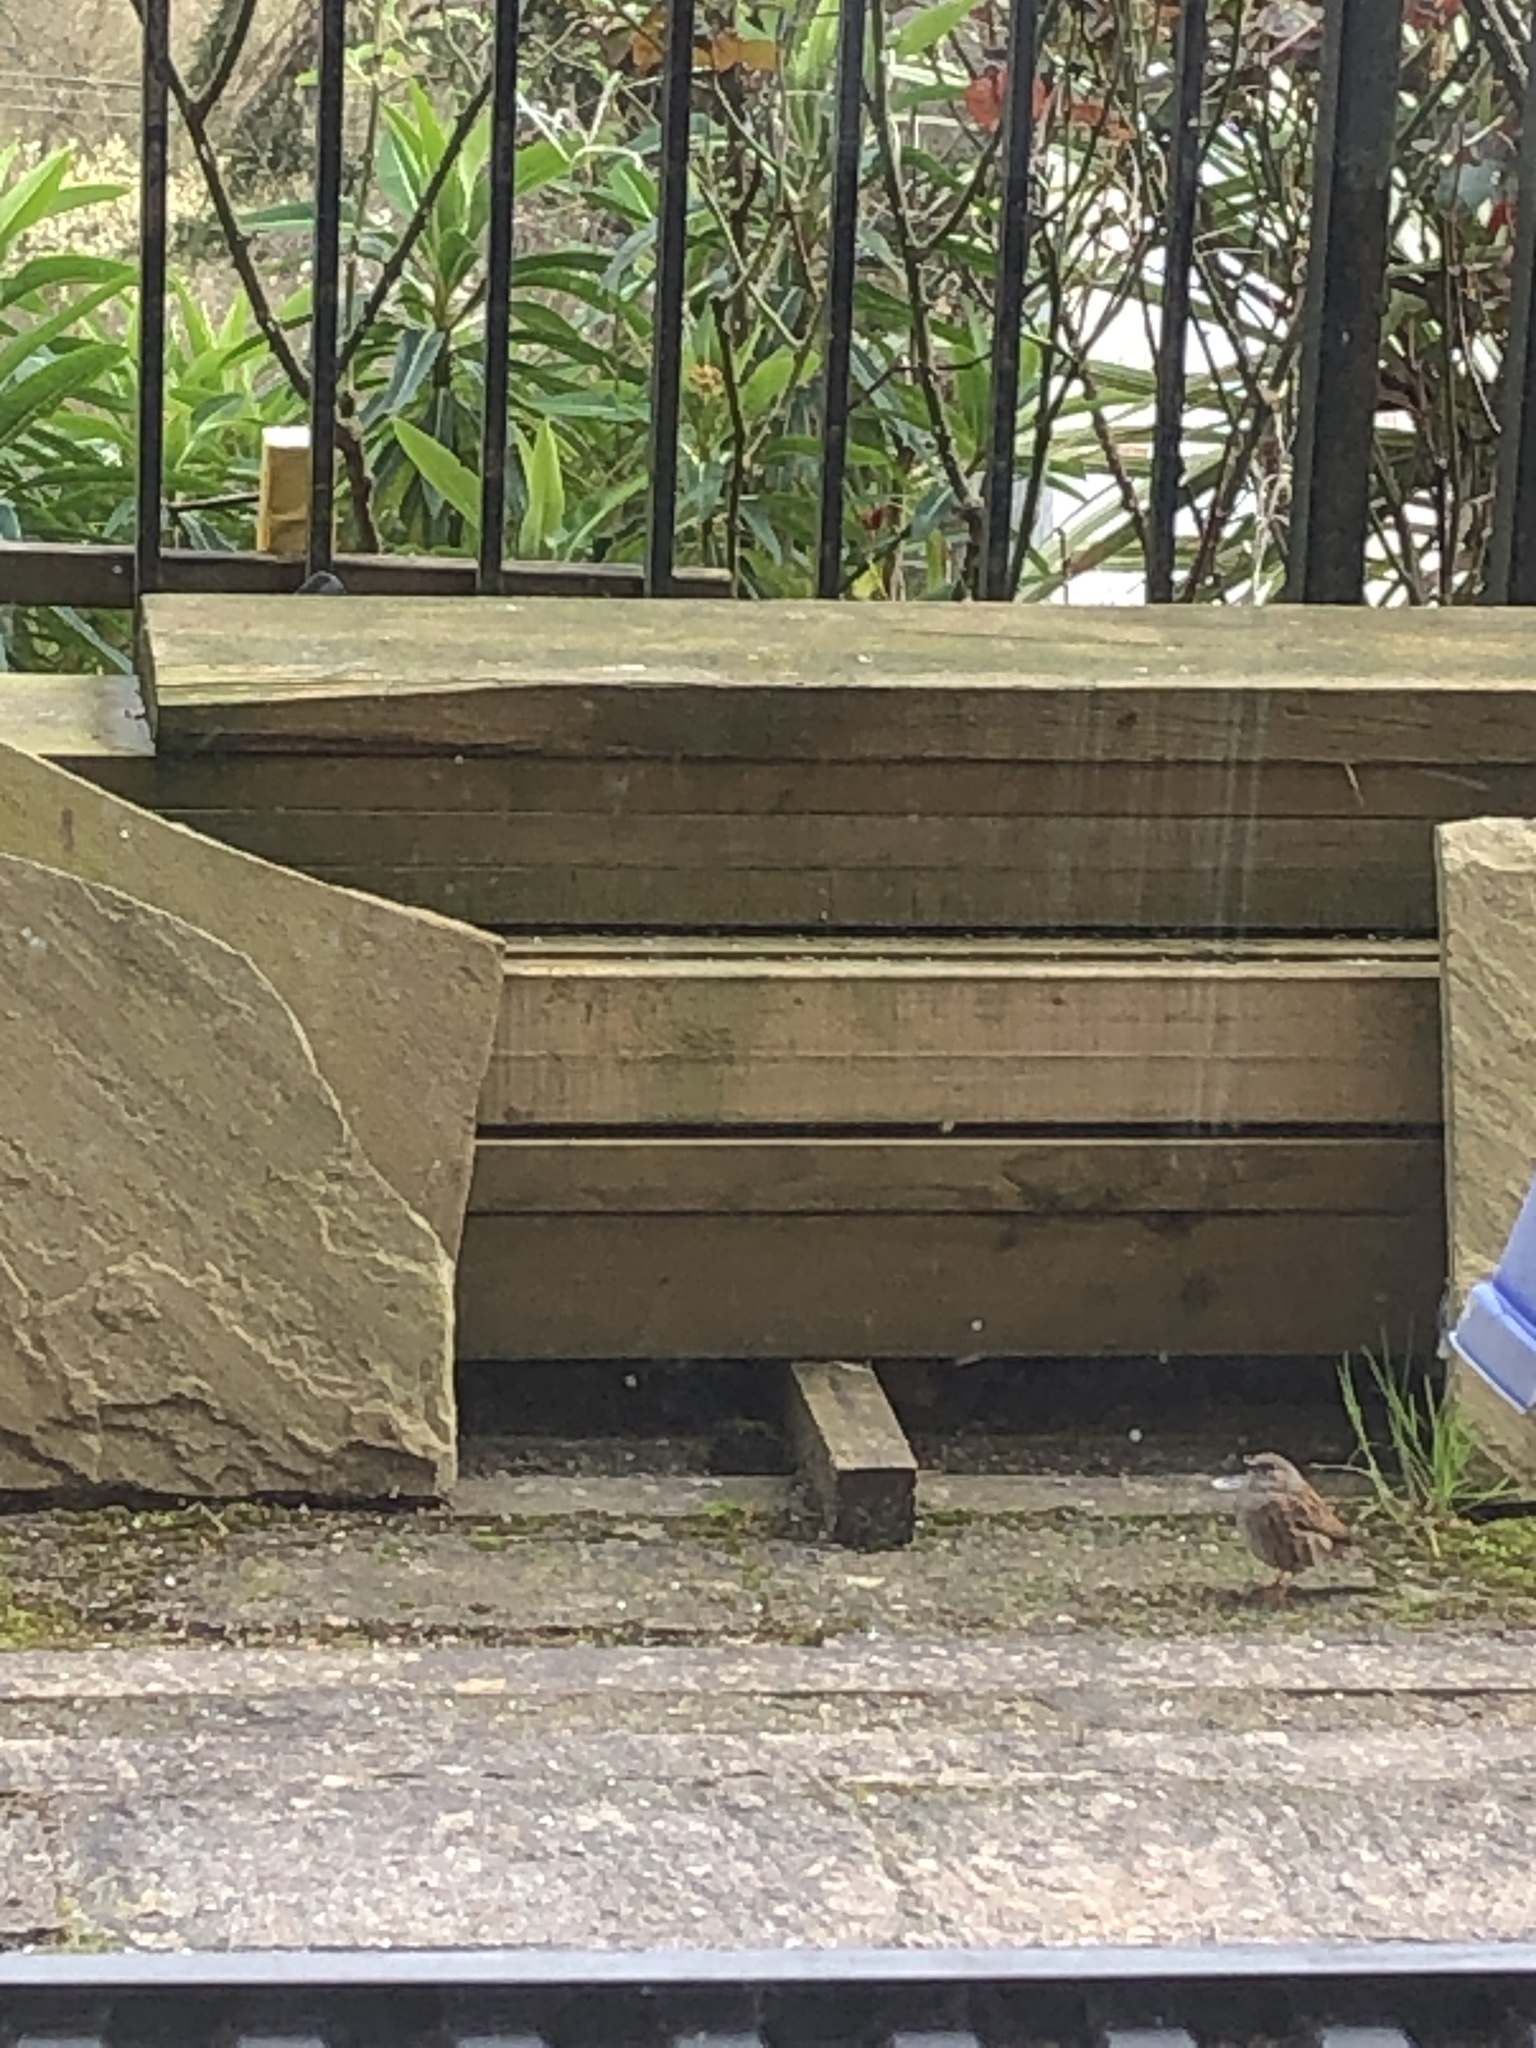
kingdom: Animalia
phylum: Chordata
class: Aves
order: Passeriformes
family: Prunellidae
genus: Prunella
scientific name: Prunella modularis
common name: Dunnock
